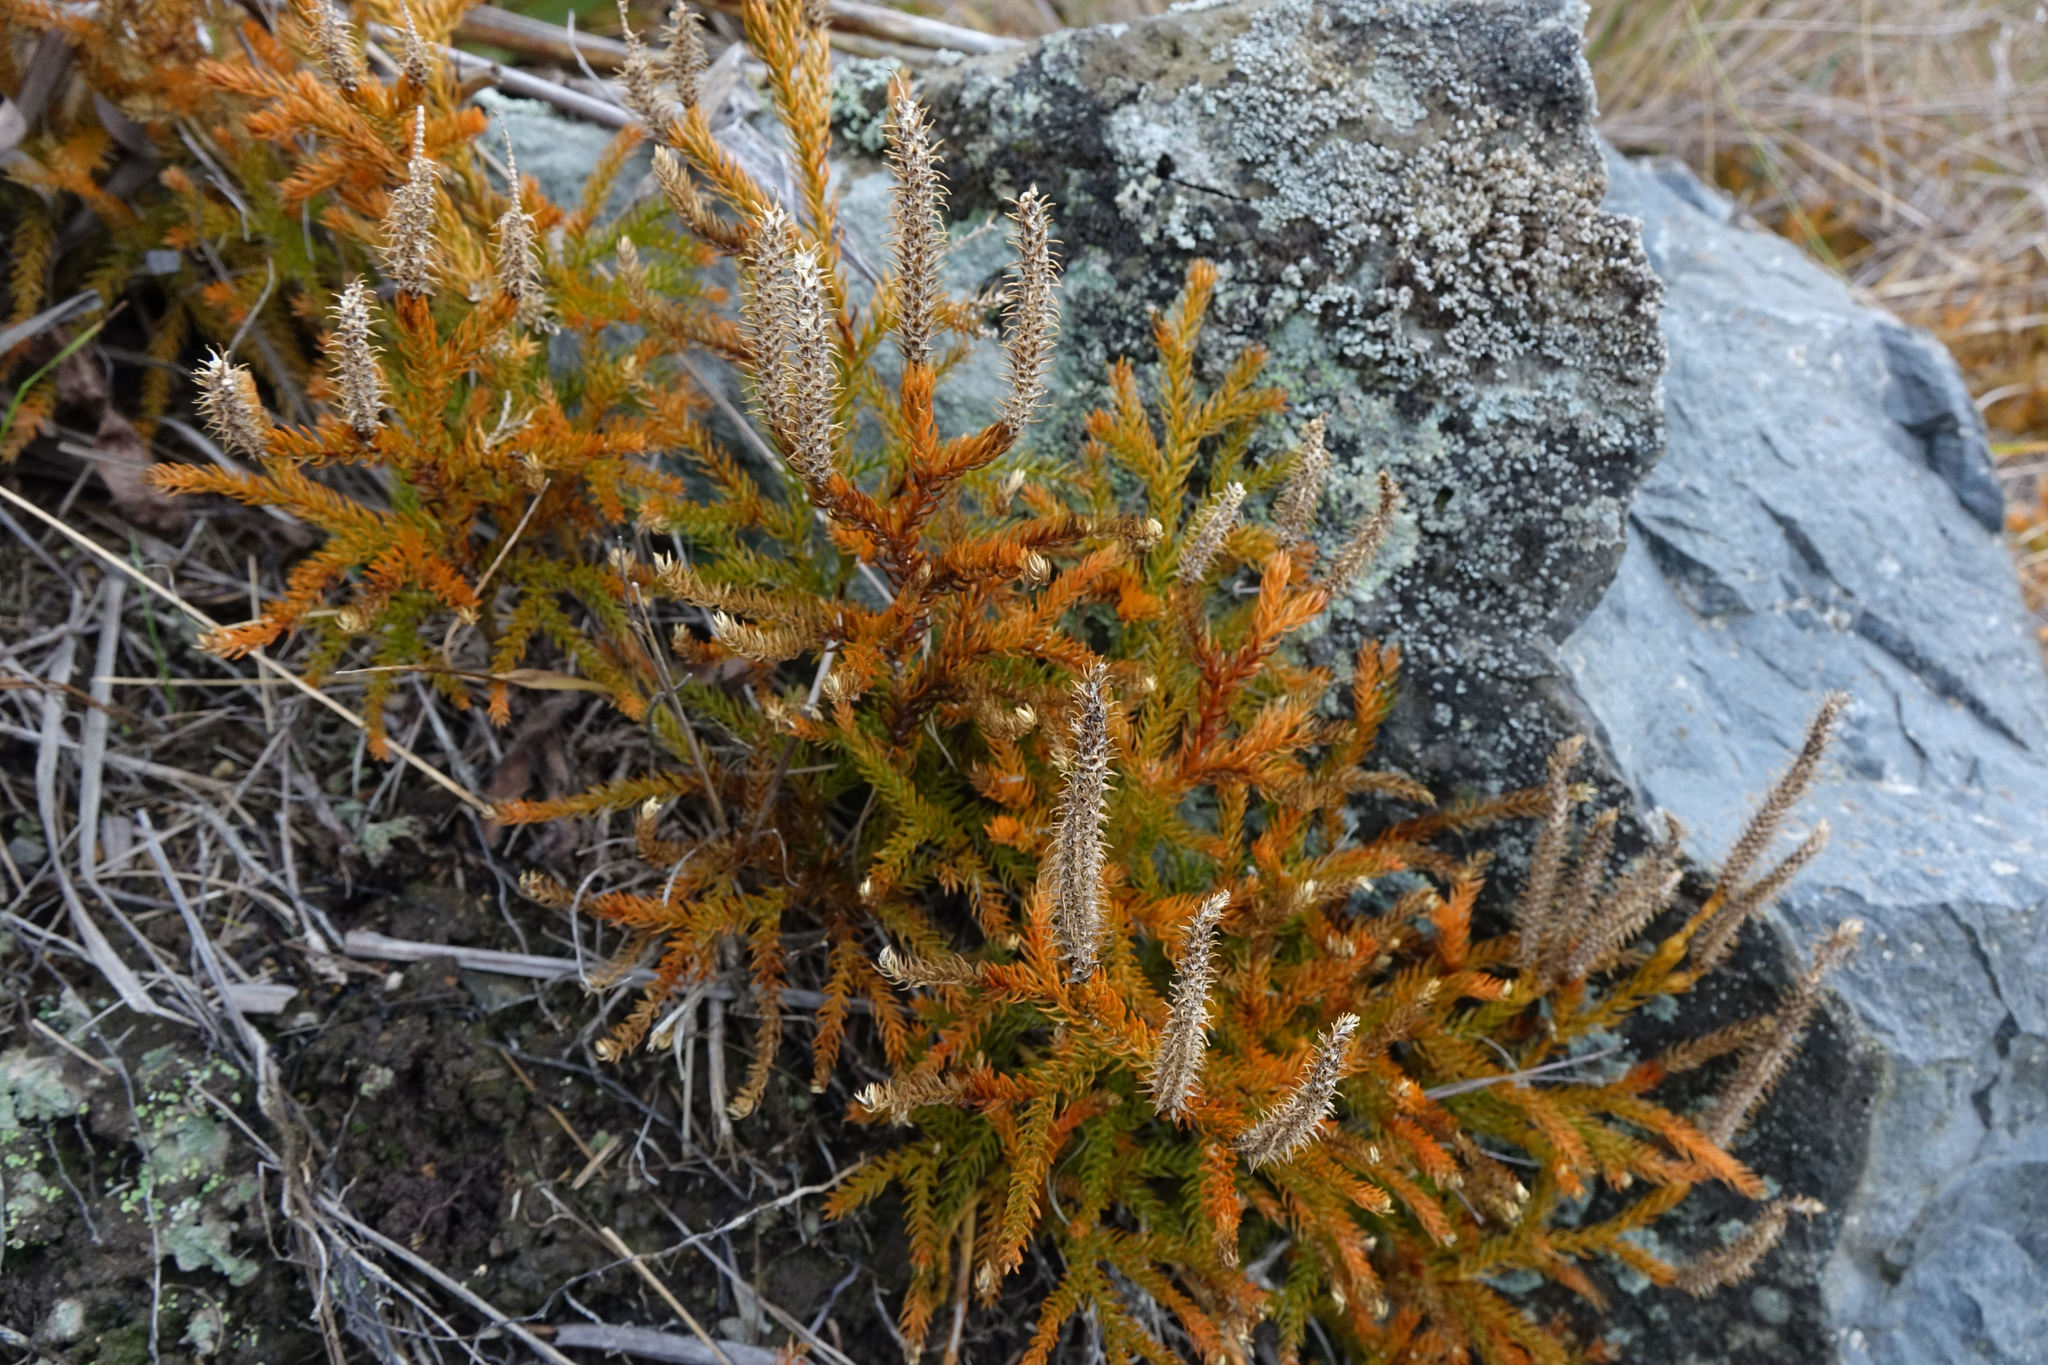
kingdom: Plantae
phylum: Tracheophyta
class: Lycopodiopsida
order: Lycopodiales
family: Lycopodiaceae
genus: Austrolycopodium
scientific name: Austrolycopodium fastigiatum
